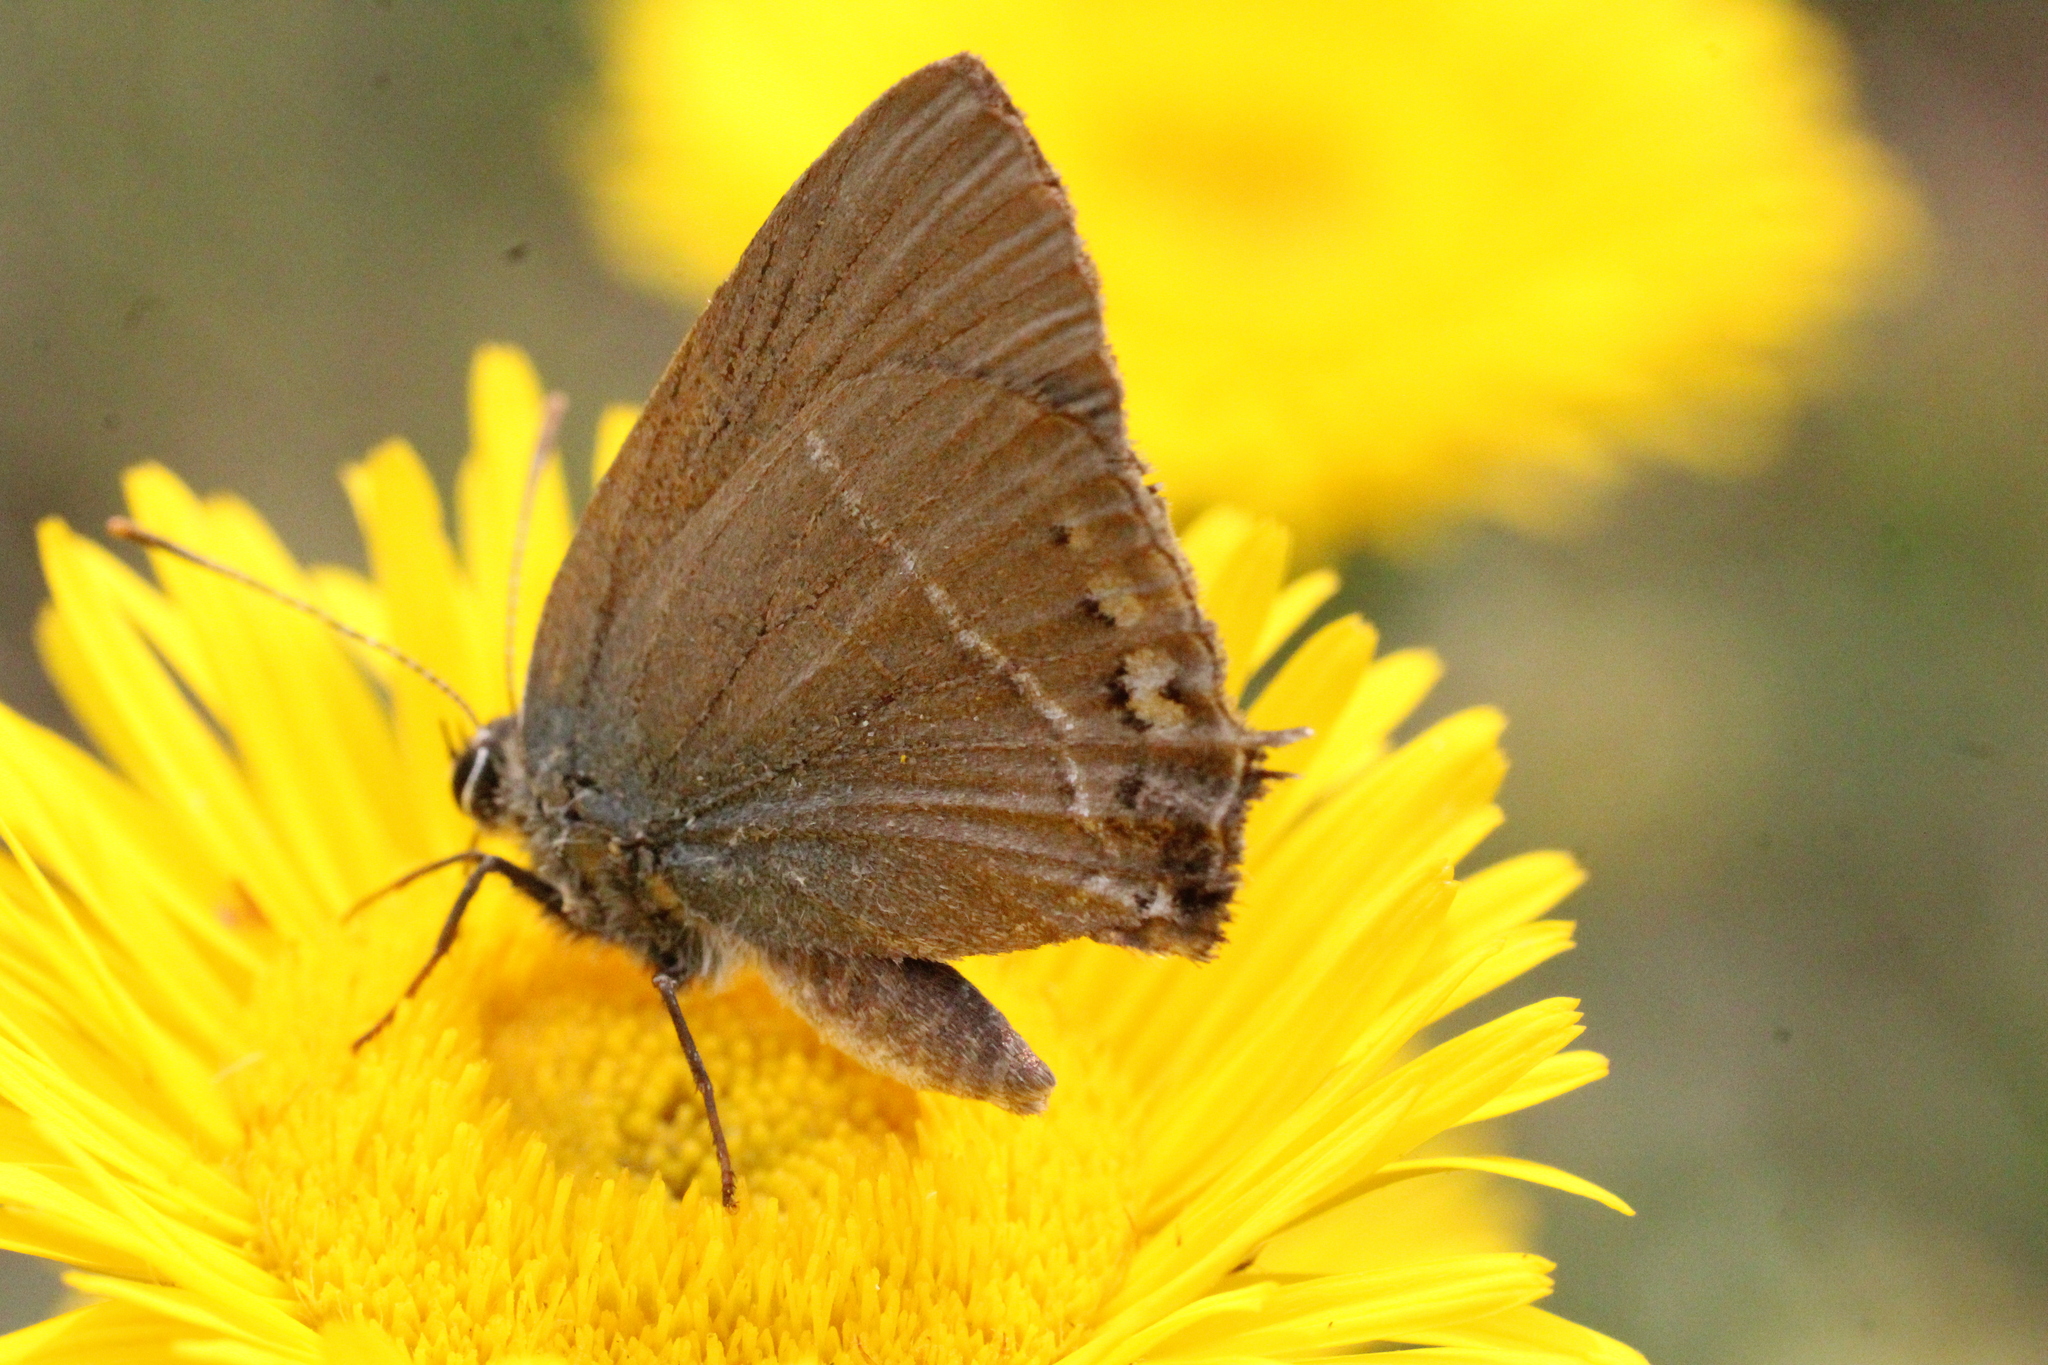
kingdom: Animalia
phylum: Arthropoda
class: Insecta
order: Lepidoptera
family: Lycaenidae
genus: Tuttiola
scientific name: Tuttiola spini
